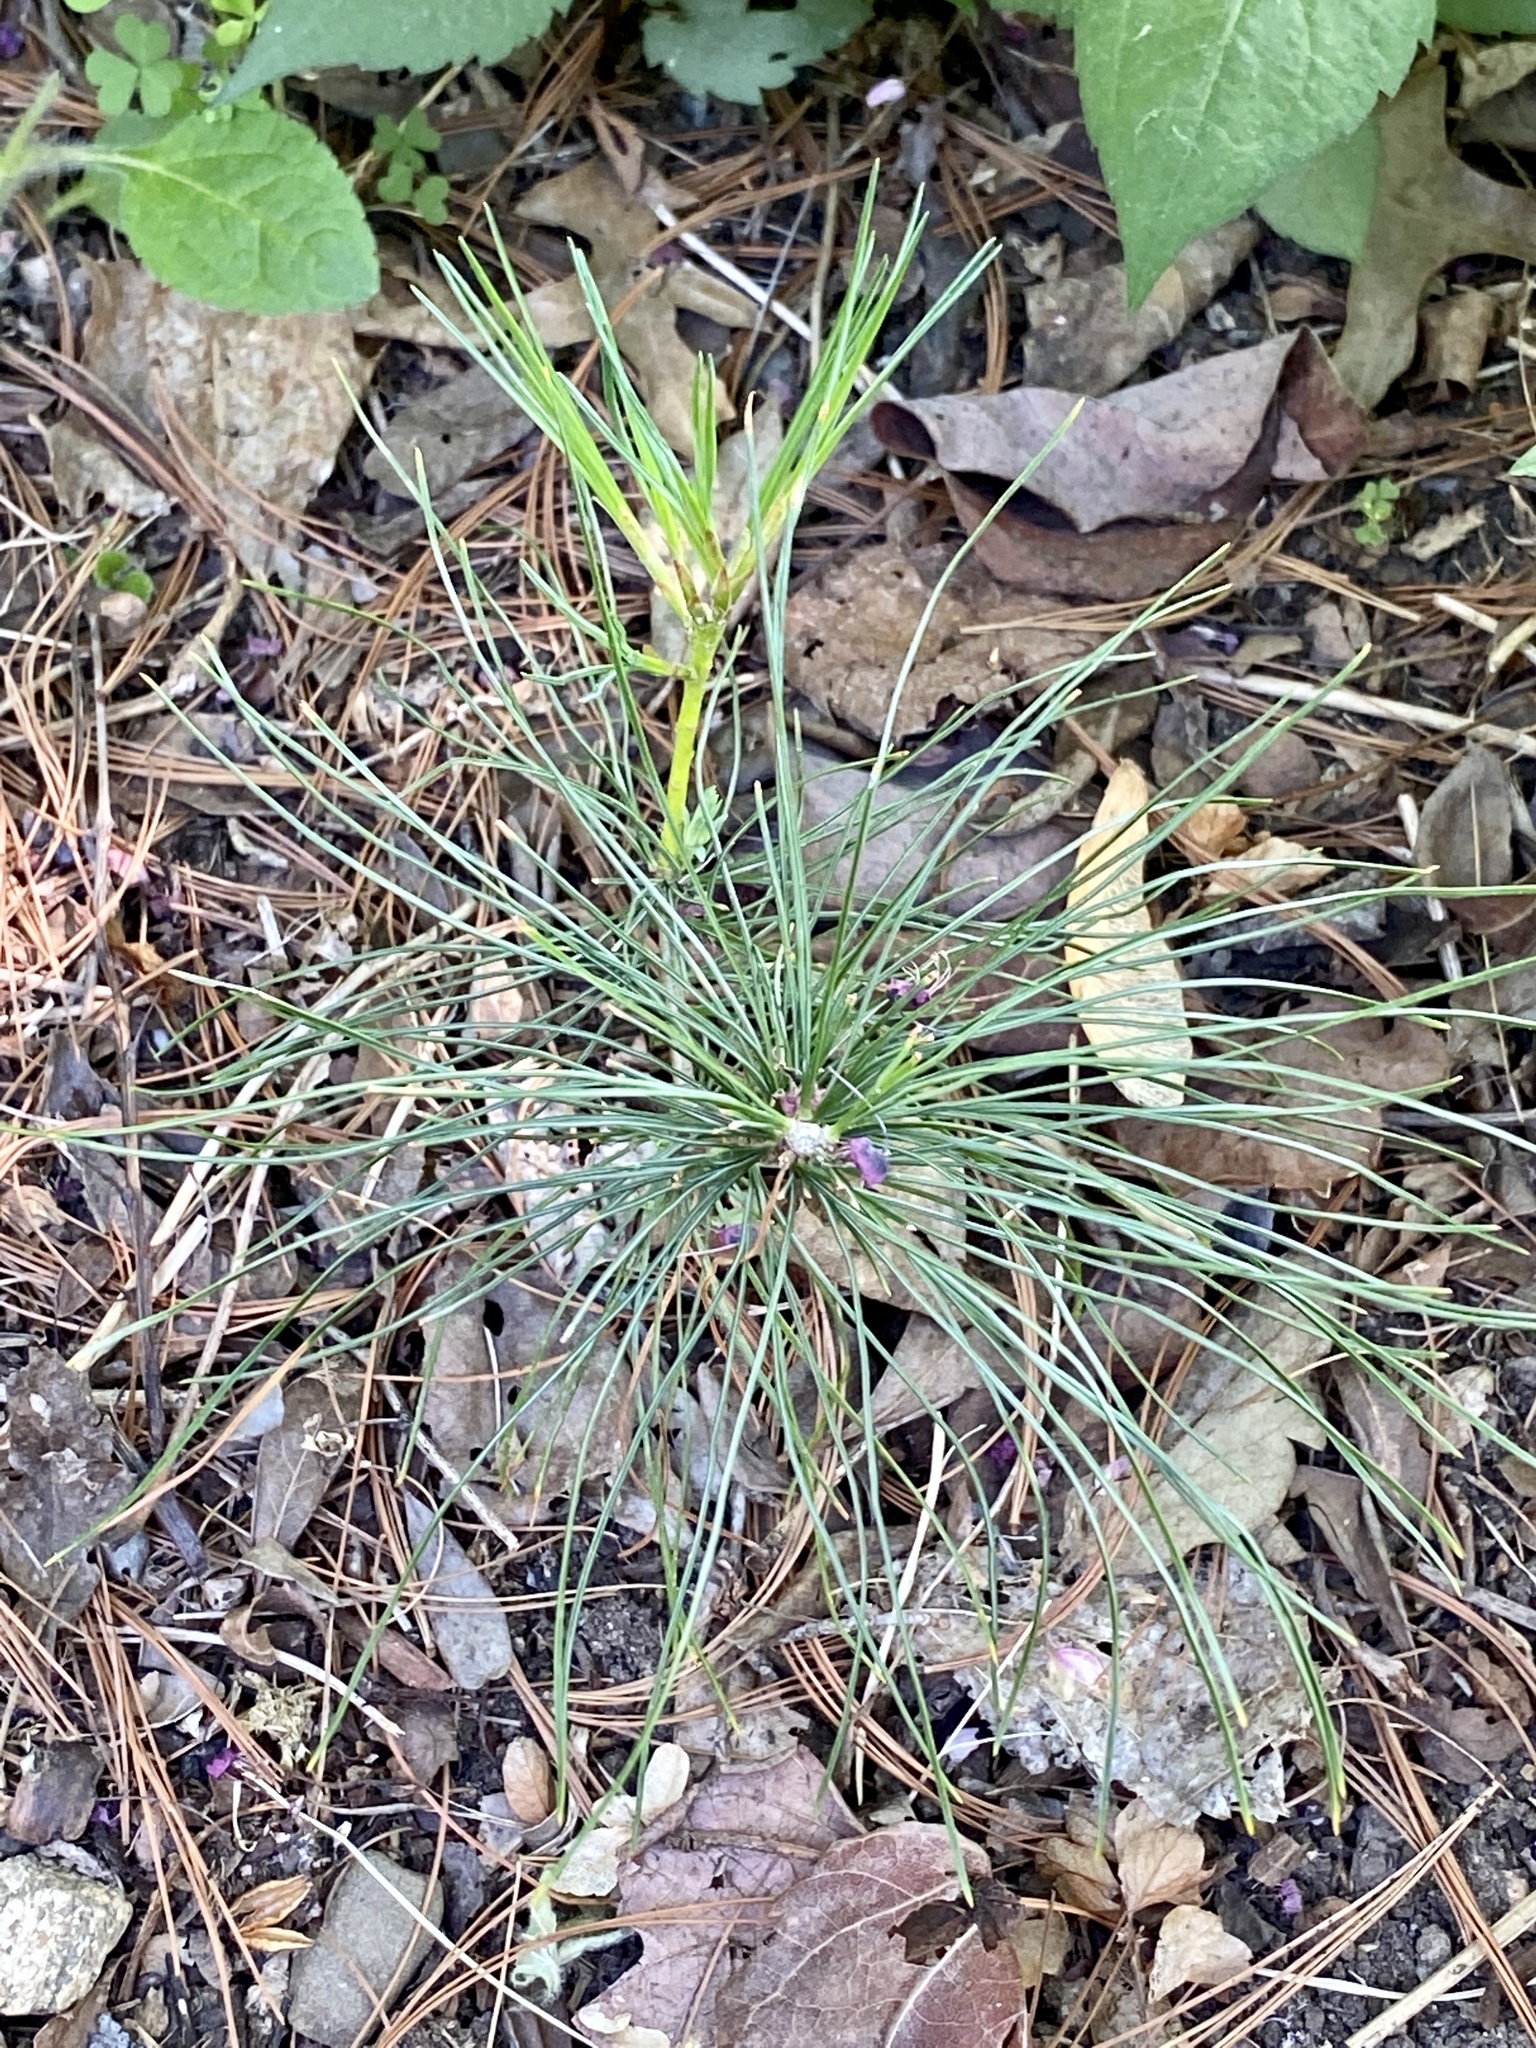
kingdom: Plantae
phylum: Tracheophyta
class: Pinopsida
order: Pinales
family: Pinaceae
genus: Pinus
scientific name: Pinus strobus
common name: Weymouth pine
